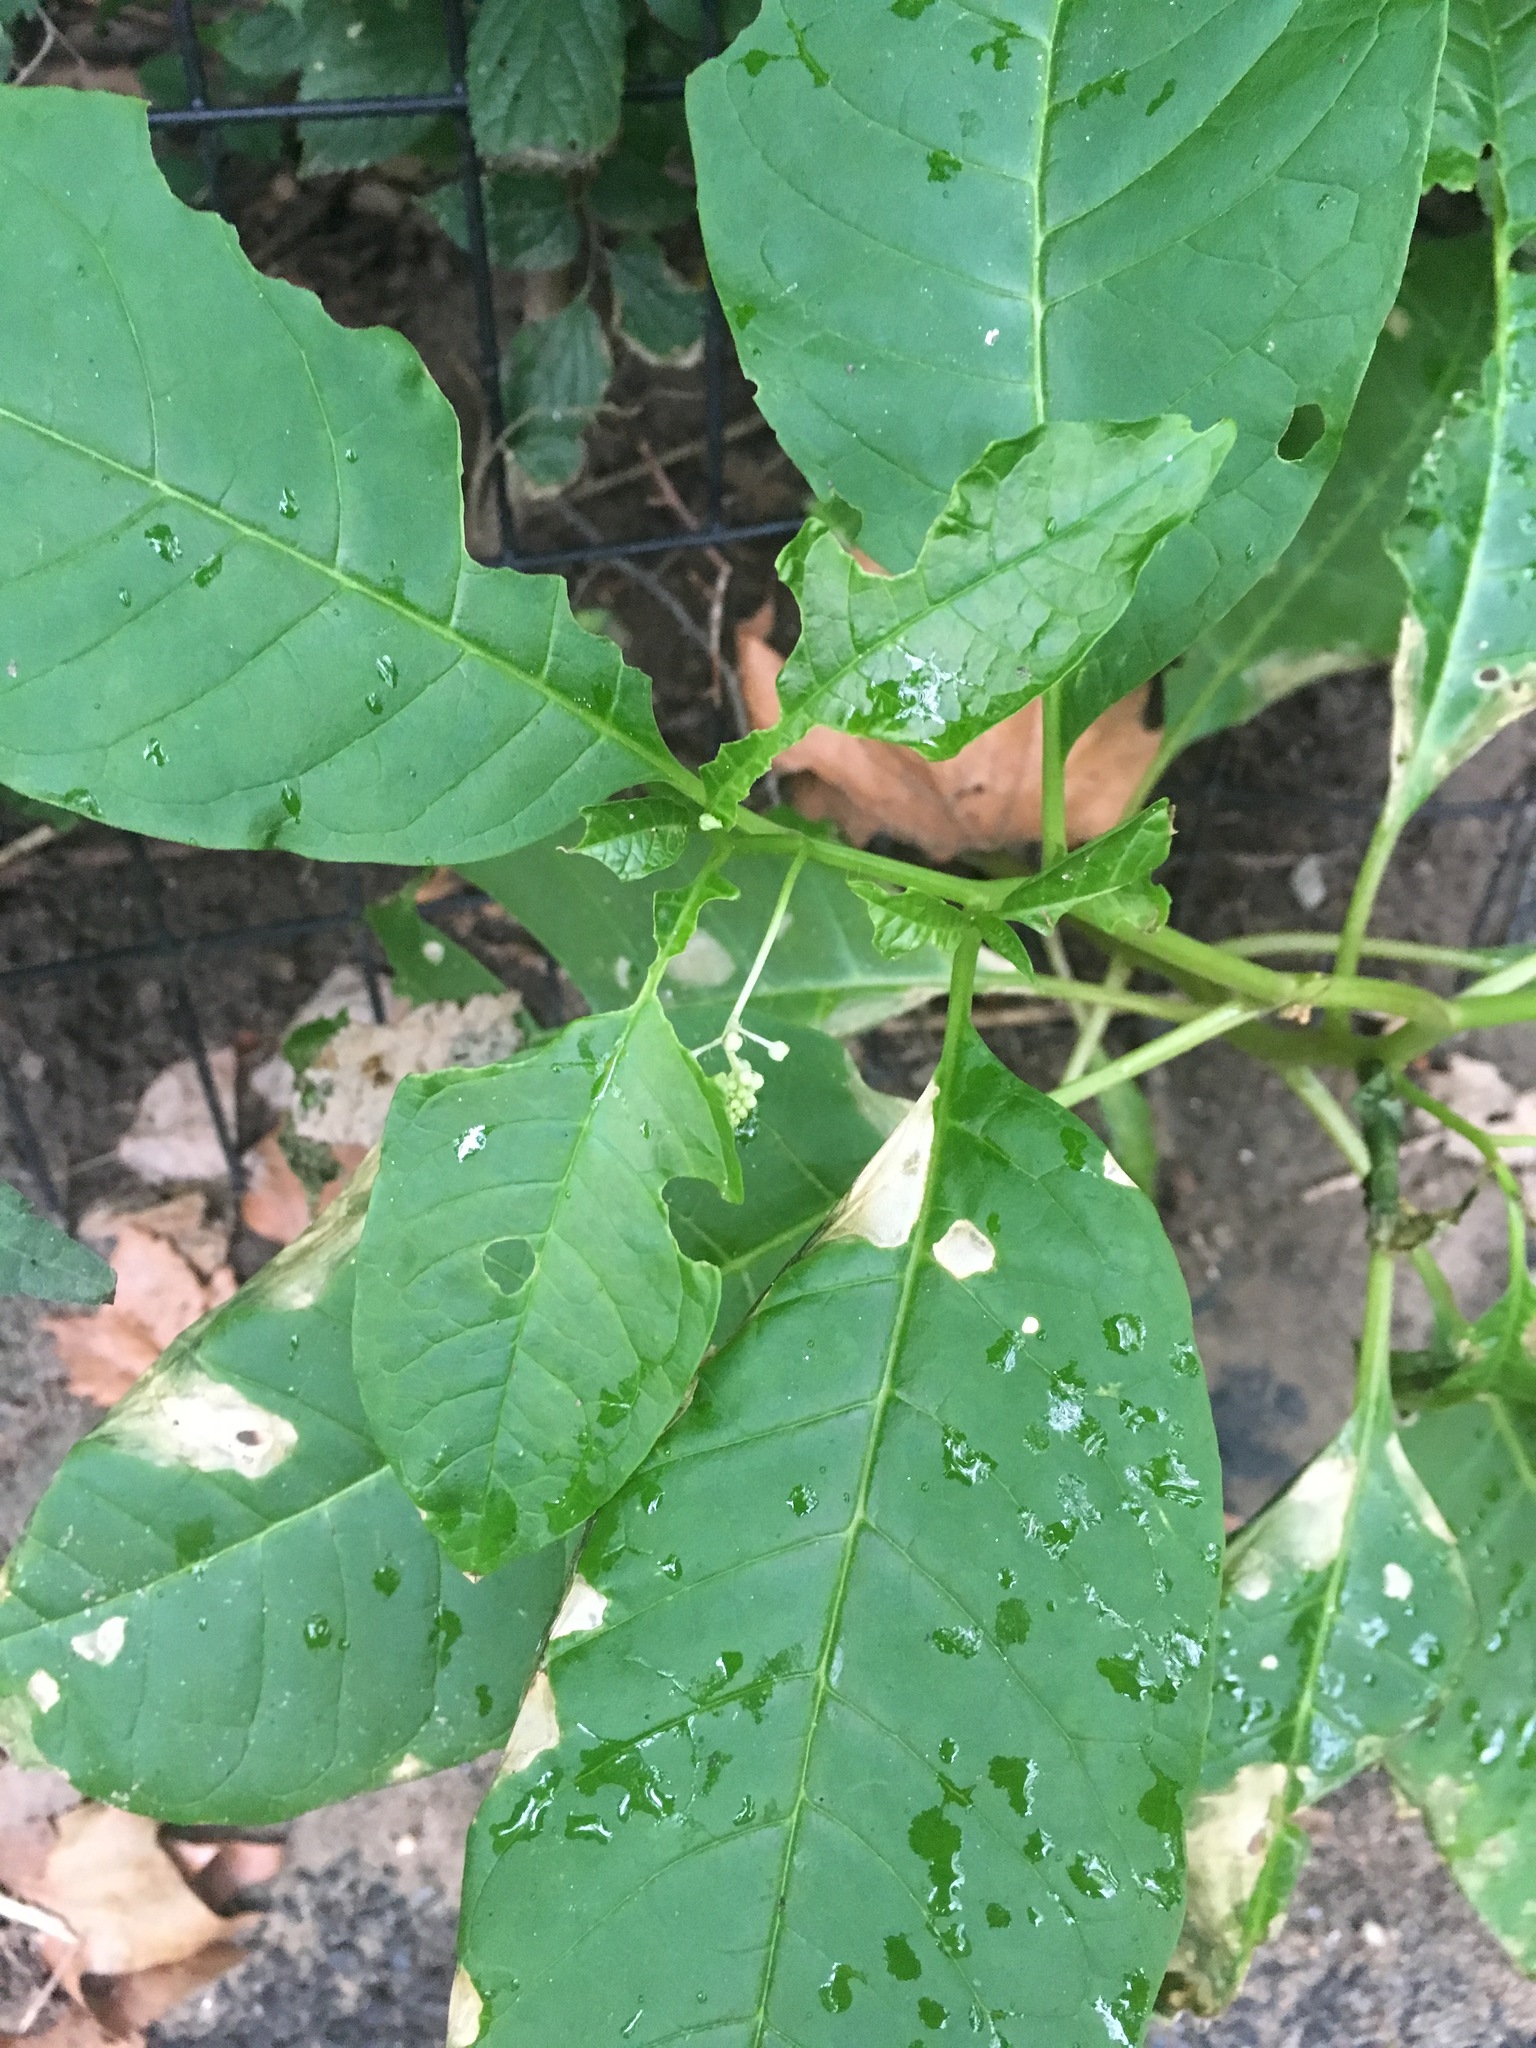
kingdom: Plantae
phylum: Tracheophyta
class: Magnoliopsida
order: Caryophyllales
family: Phytolaccaceae
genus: Phytolacca
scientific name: Phytolacca americana
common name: American pokeweed
